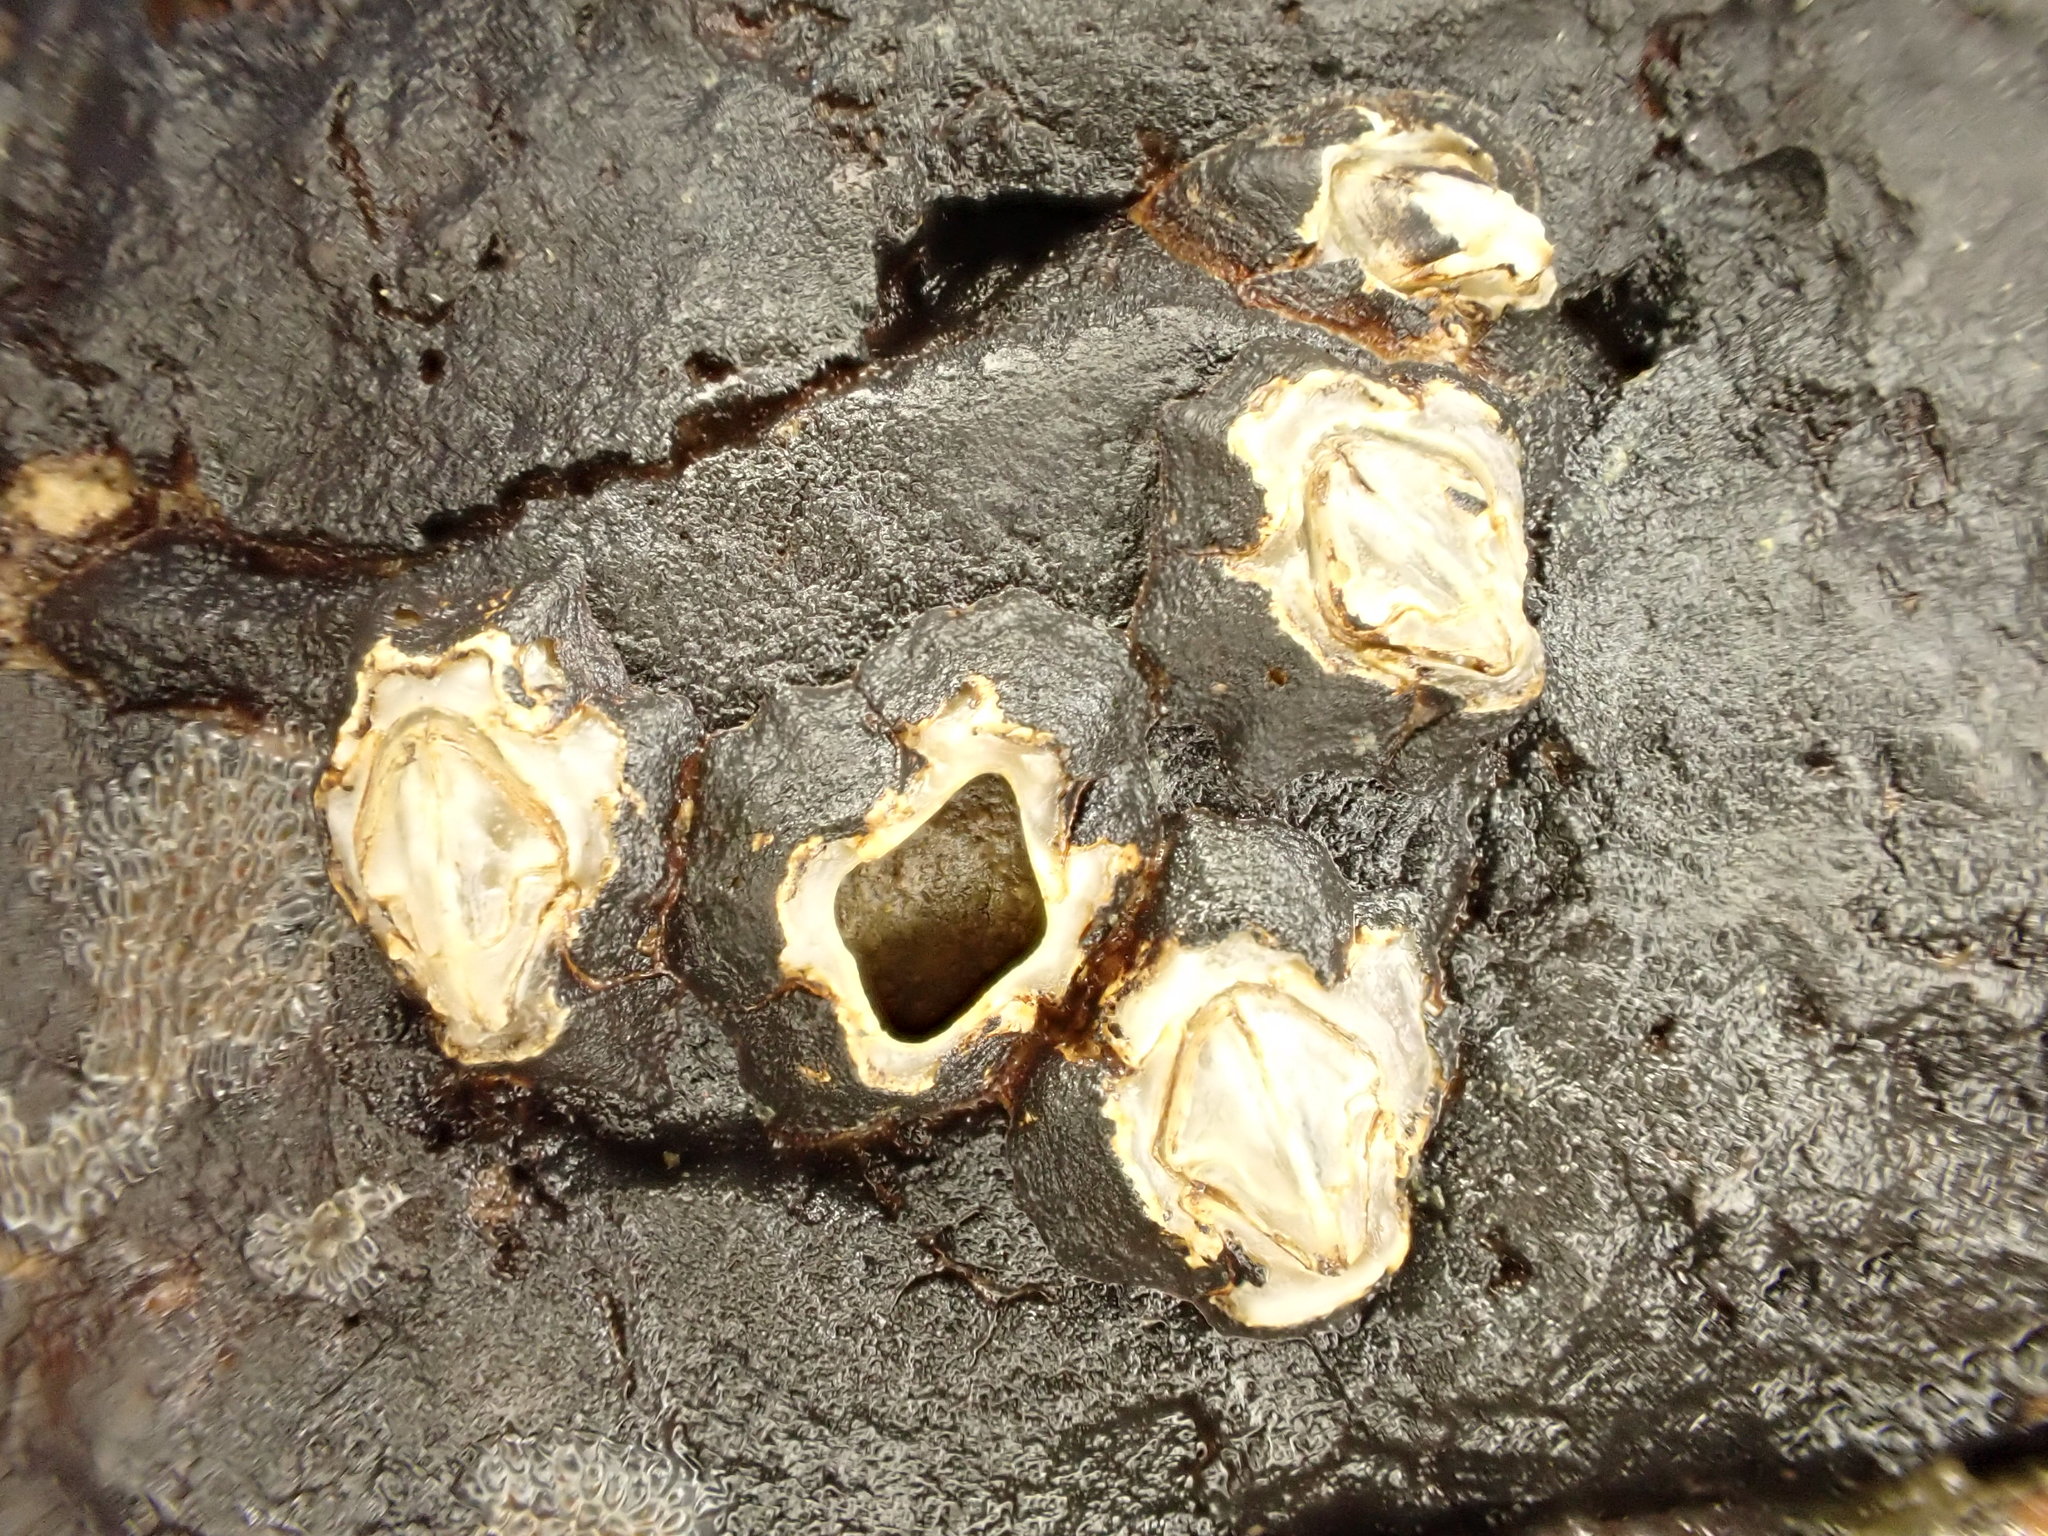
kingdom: Animalia
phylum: Arthropoda
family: Elminiidae
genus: Austrominius
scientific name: Austrominius modestus
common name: Australasian barnacle
